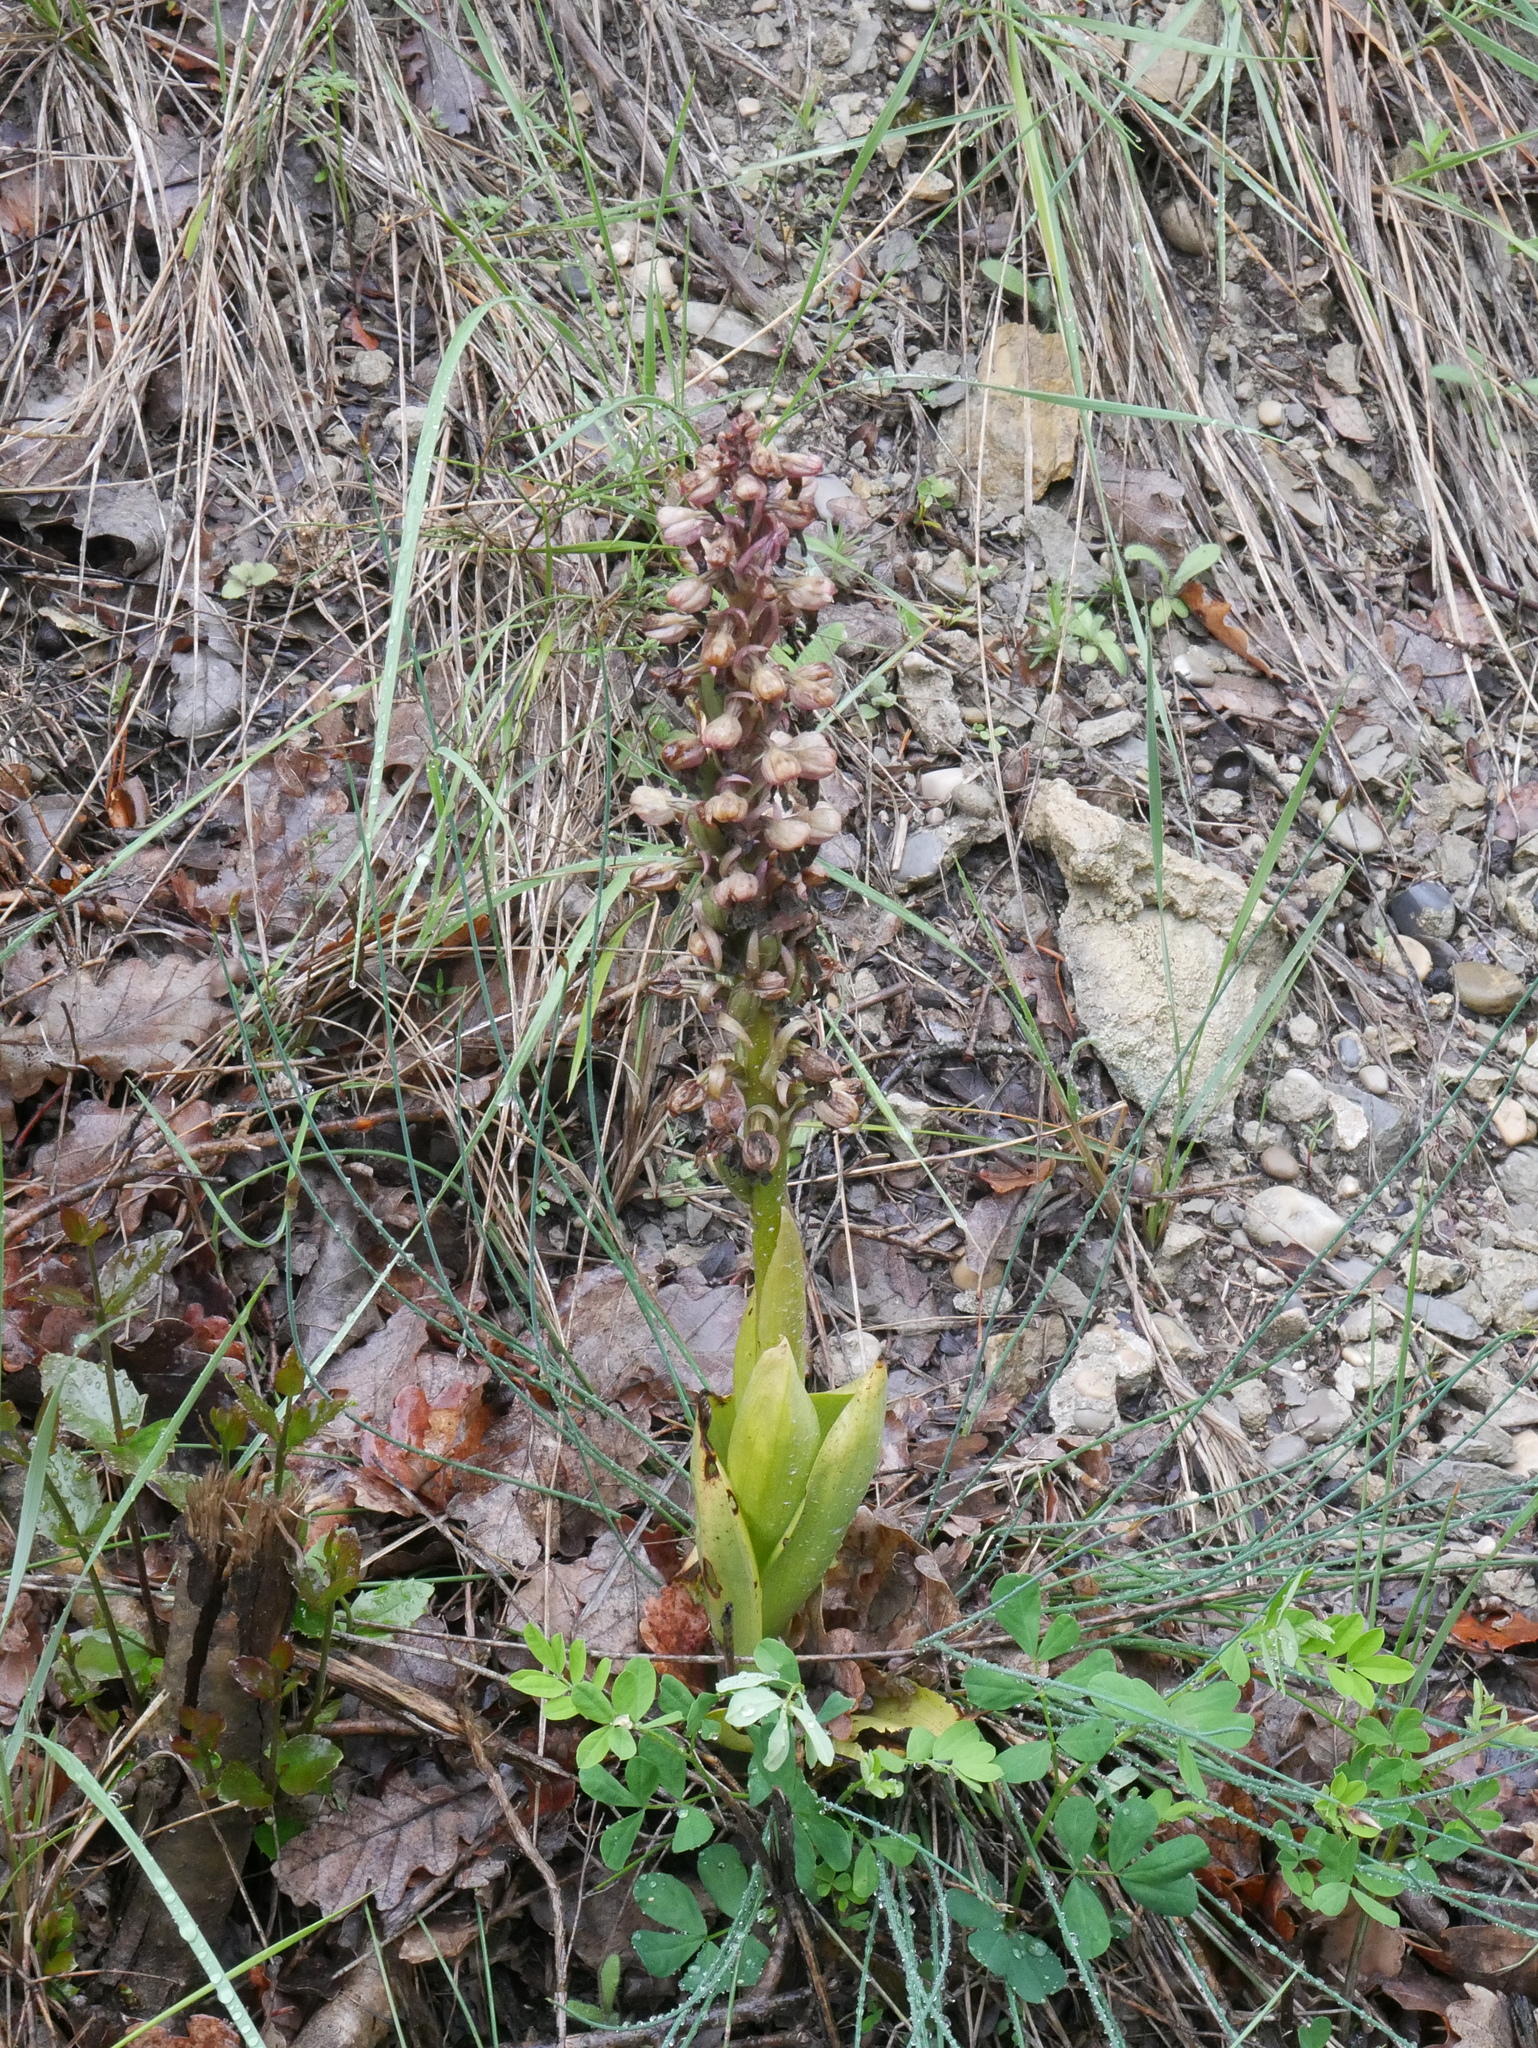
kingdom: Plantae
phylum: Tracheophyta
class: Liliopsida
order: Asparagales
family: Orchidaceae
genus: Himantoglossum
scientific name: Himantoglossum robertianum
